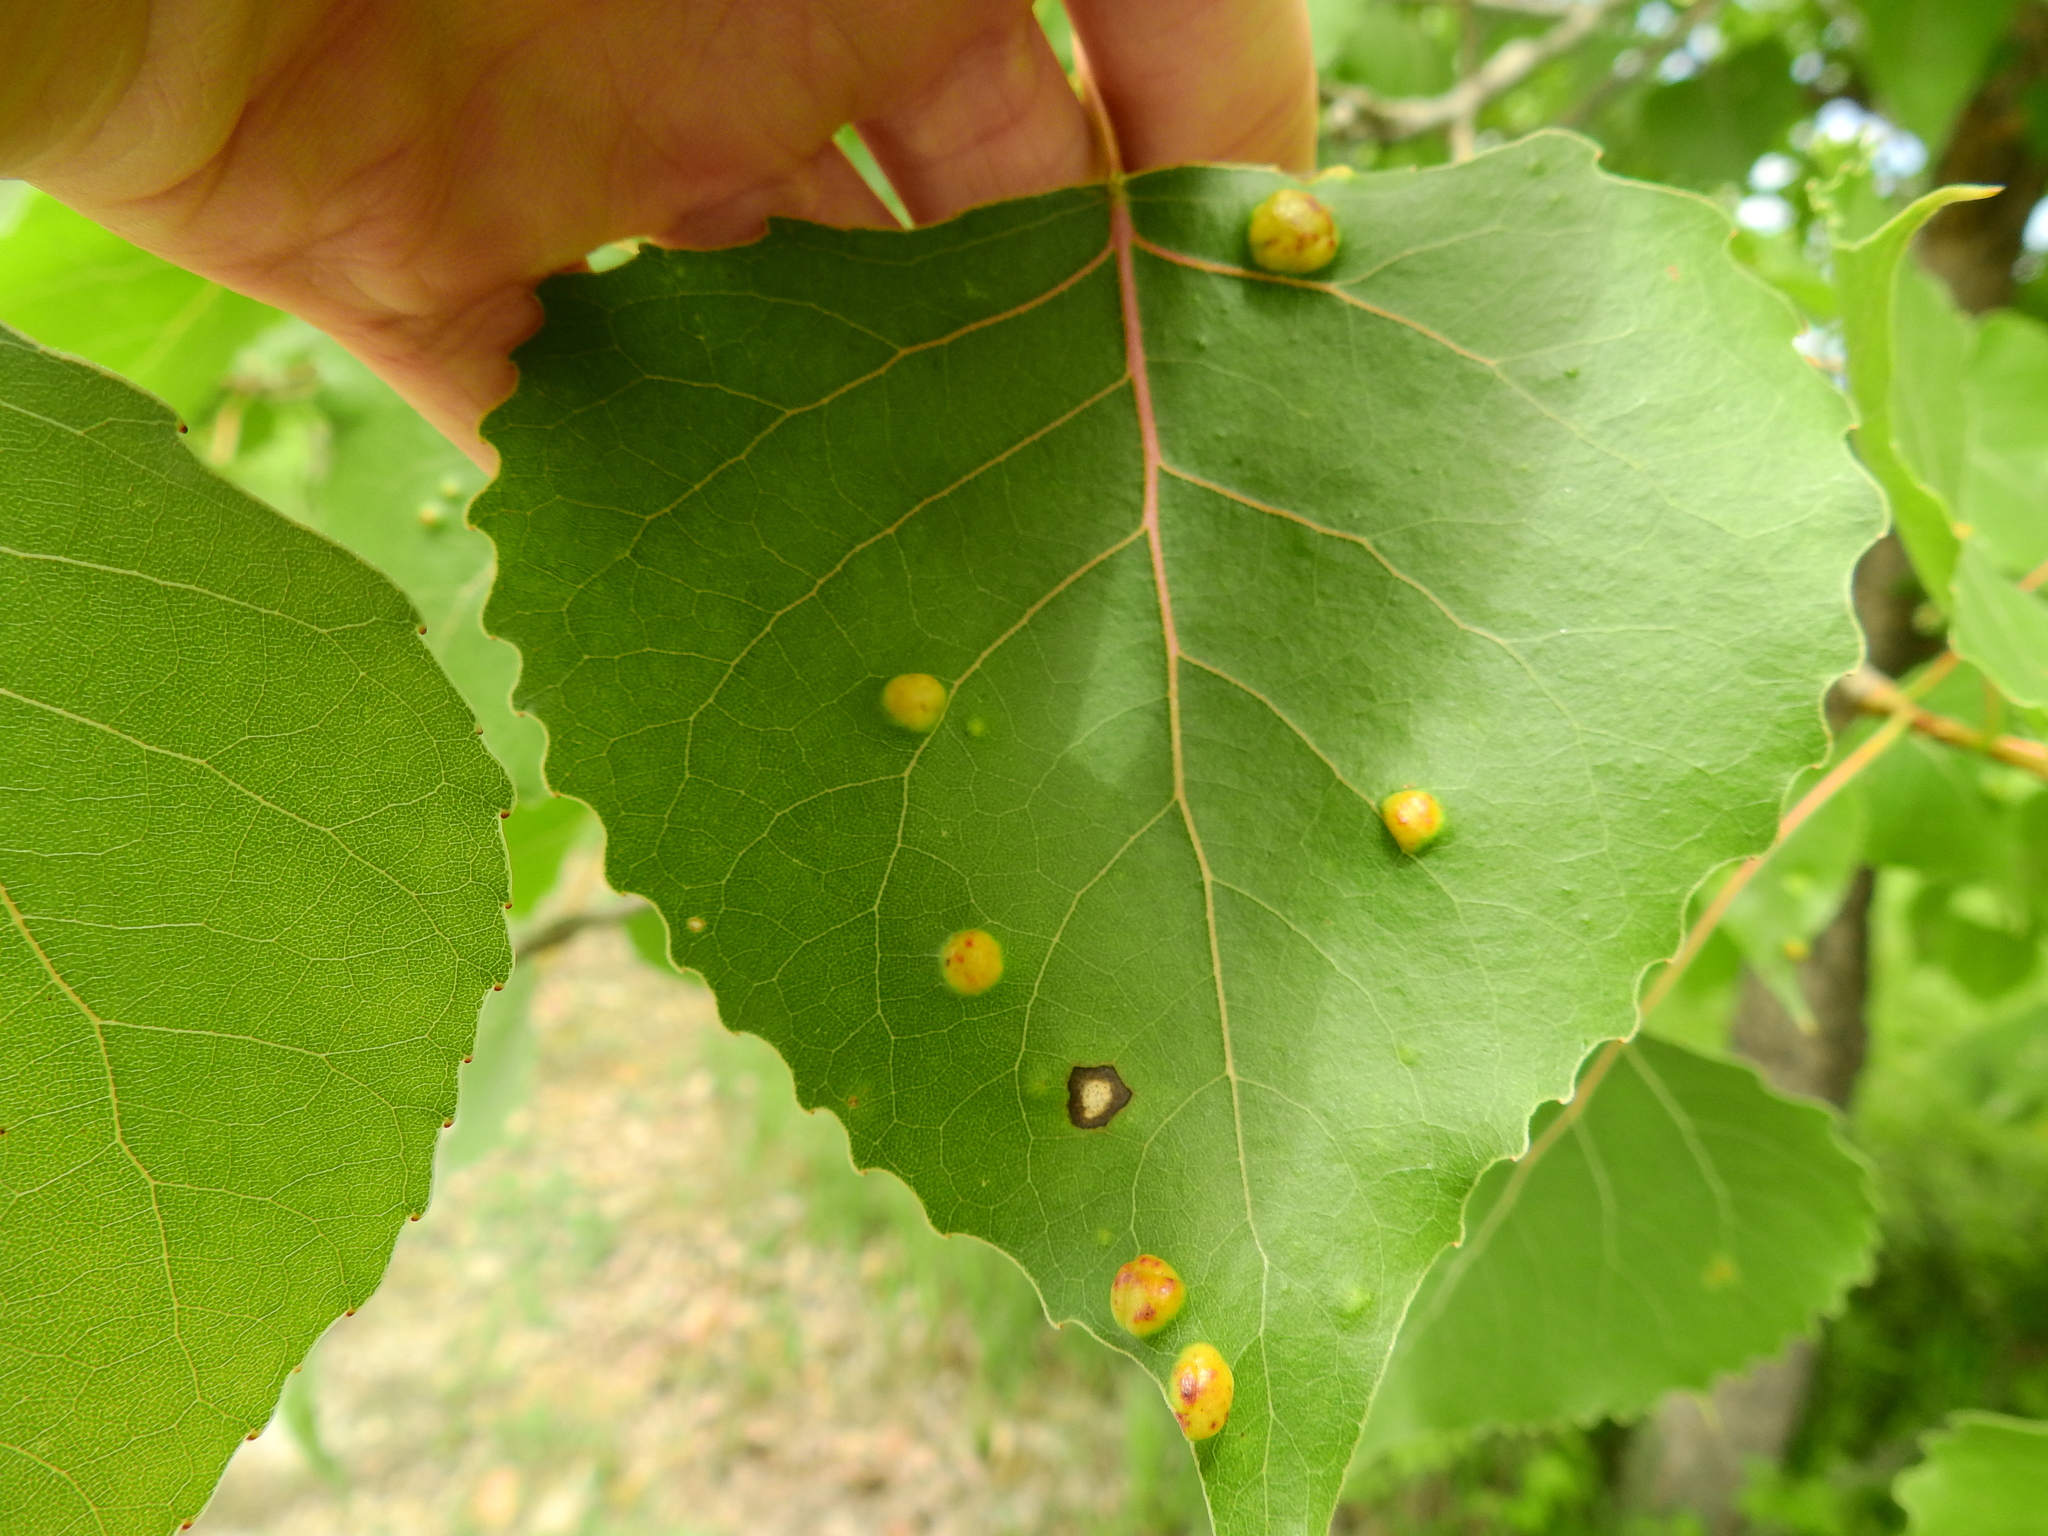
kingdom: Fungi
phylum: Ascomycota
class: Taphrinomycetes
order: Taphrinales
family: Taphrinaceae
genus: Taphrina
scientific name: Taphrina populina
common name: Poplar leaf curl
